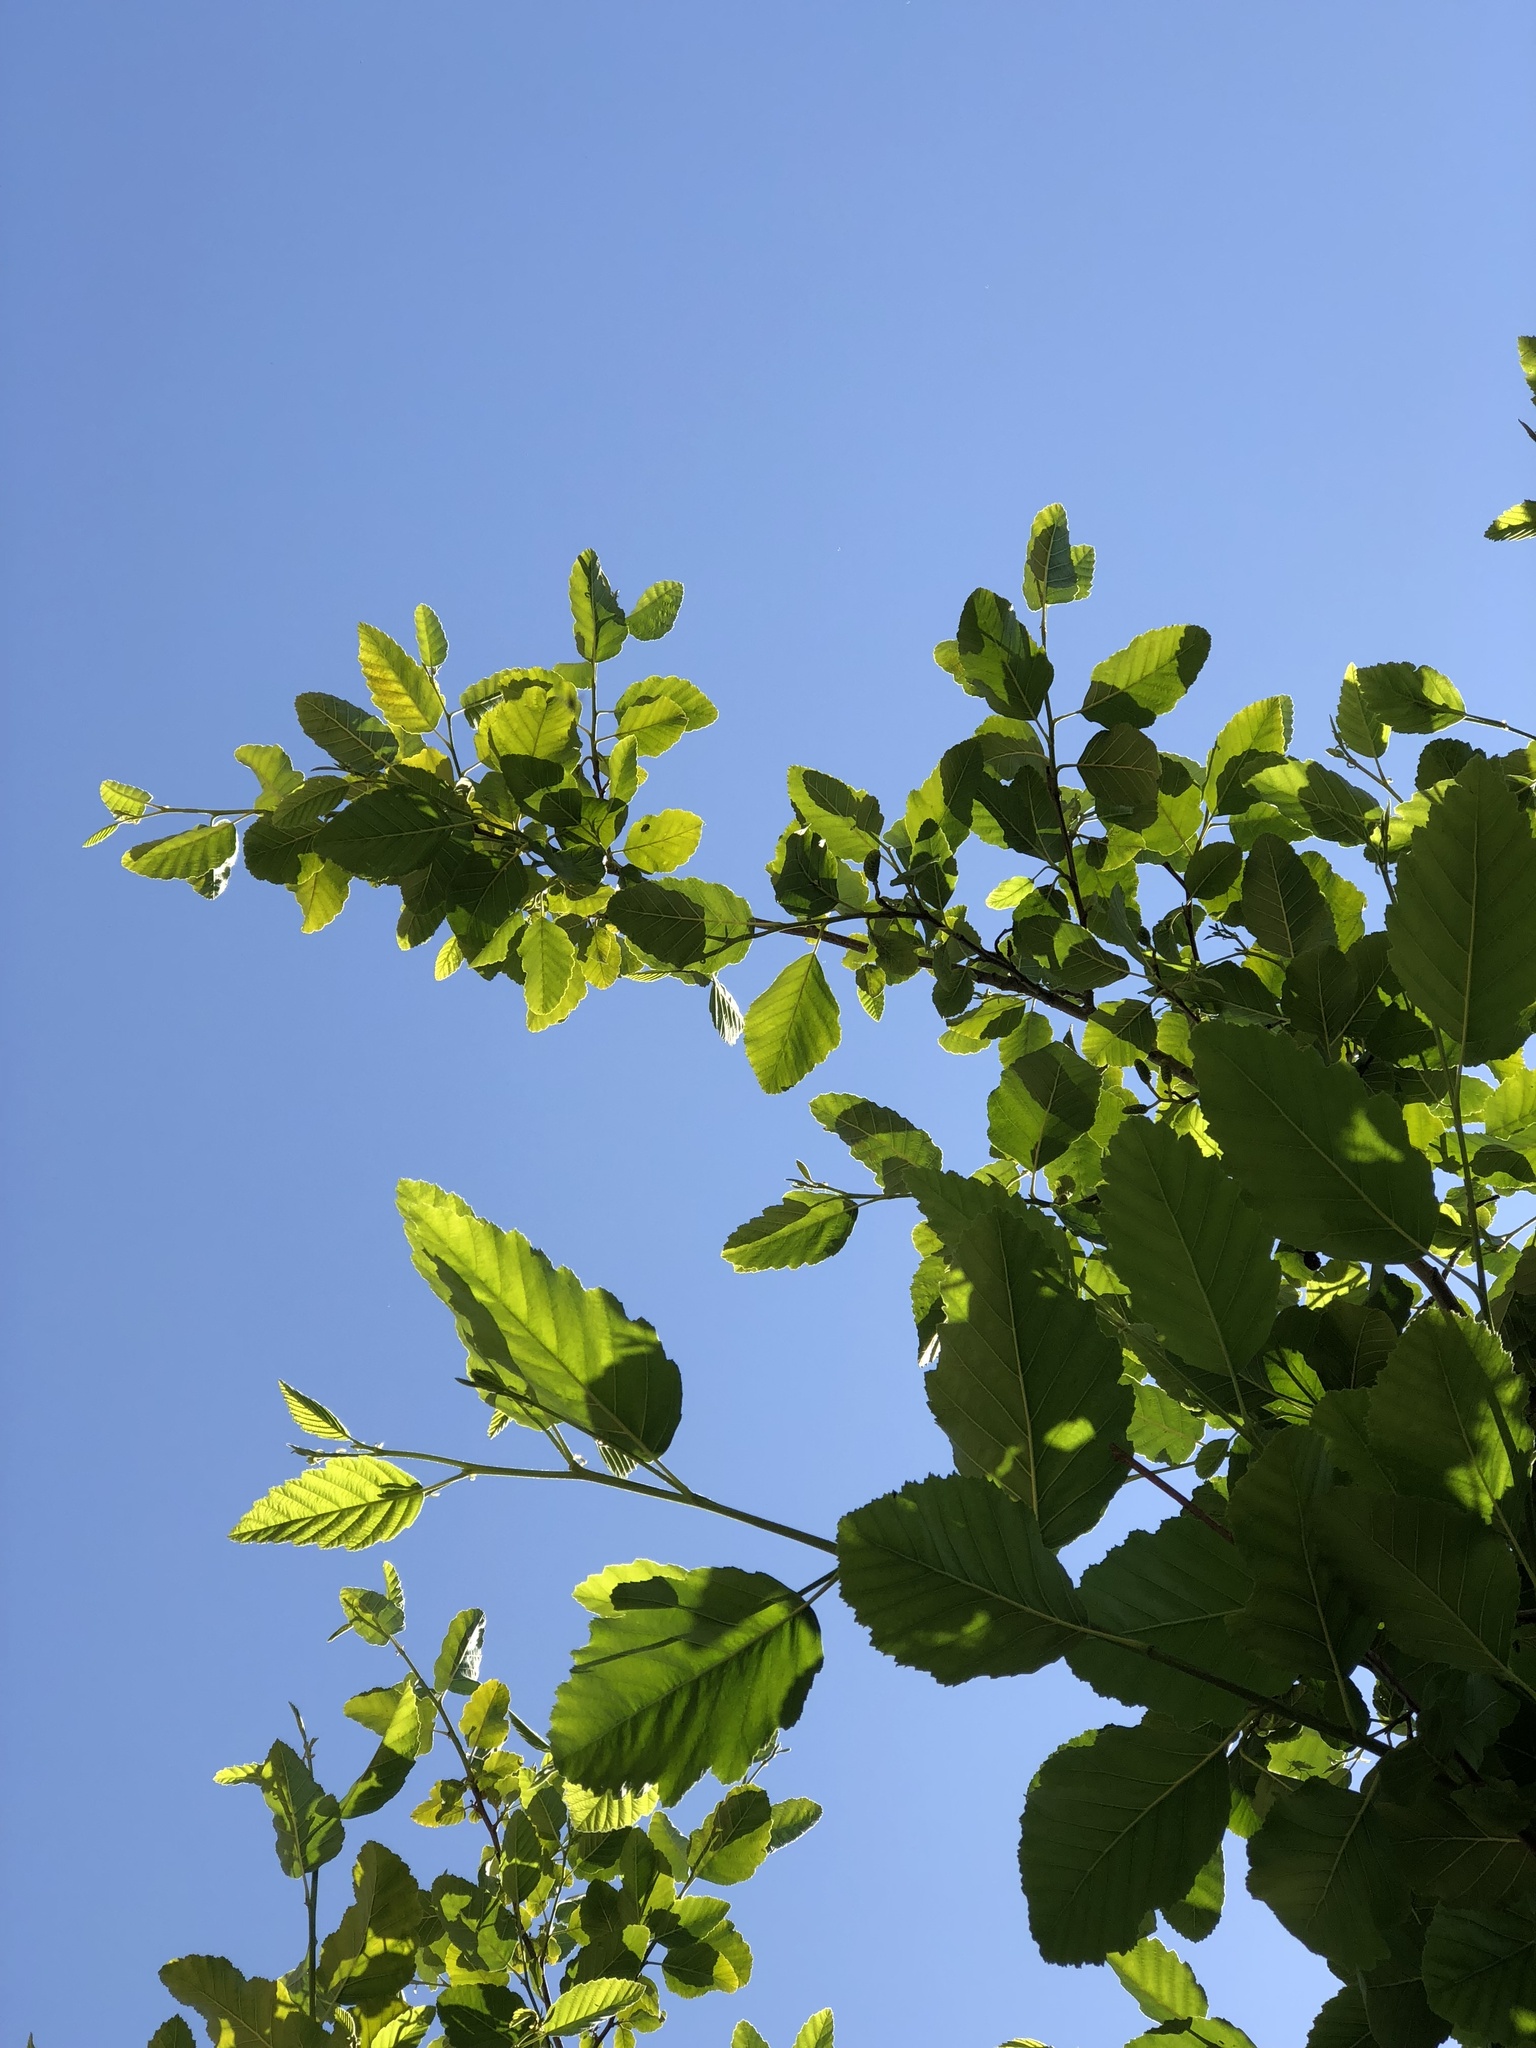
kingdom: Plantae
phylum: Tracheophyta
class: Magnoliopsida
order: Rosales
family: Ulmaceae
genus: Ulmus
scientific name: Ulmus pumila
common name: Siberian elm
